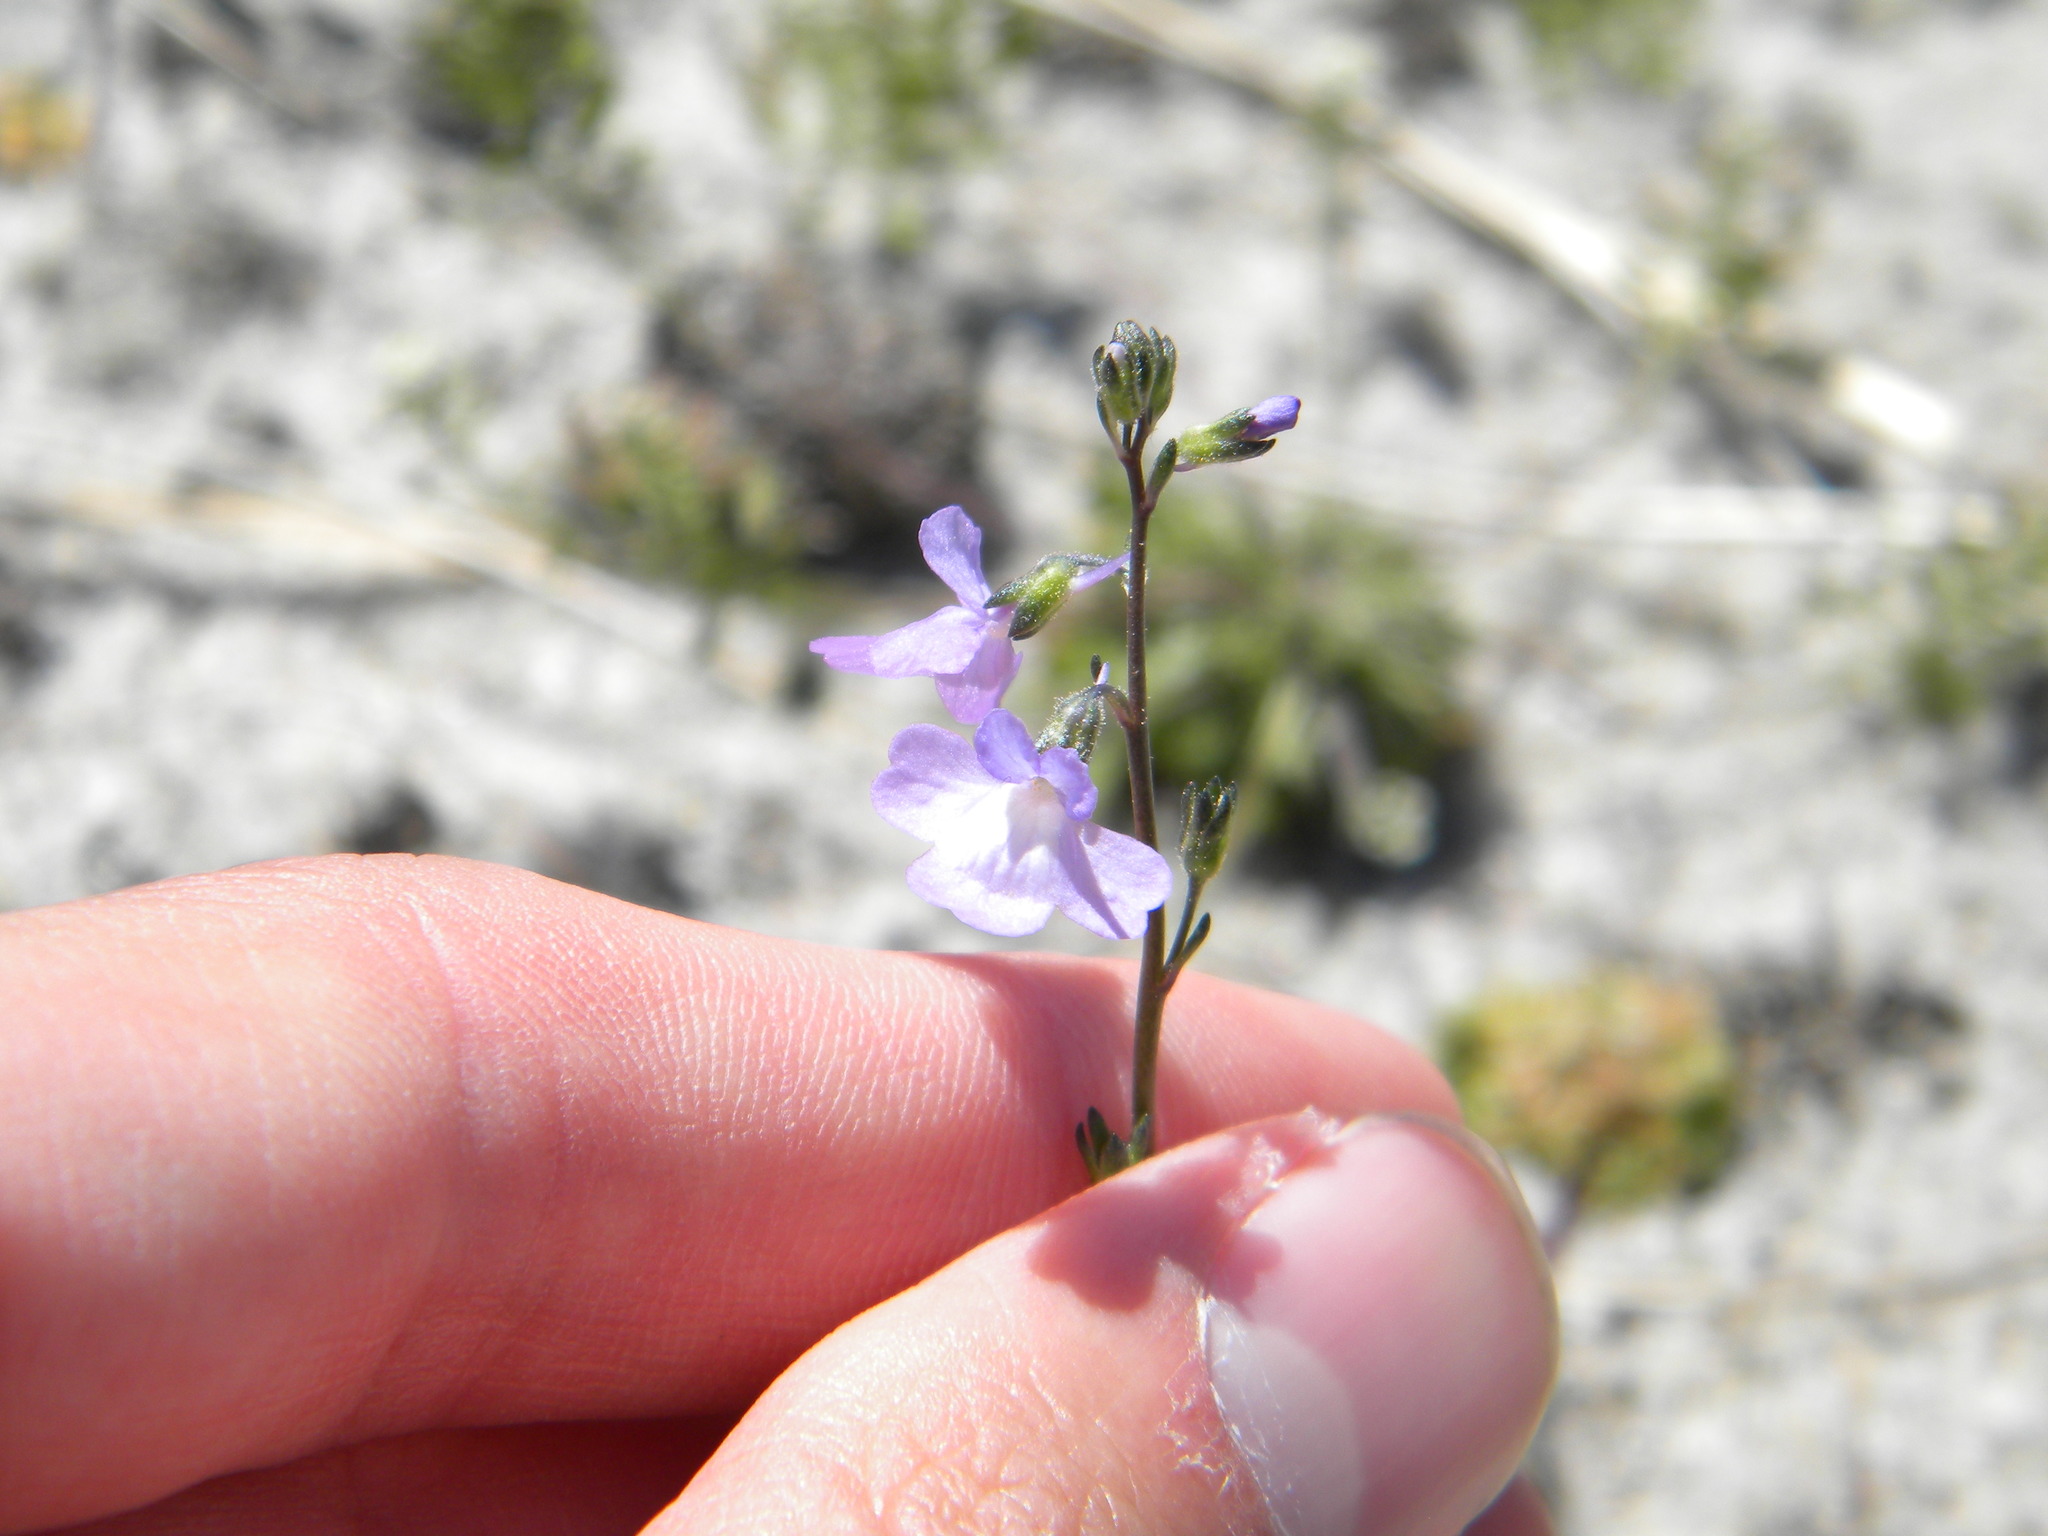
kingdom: Plantae
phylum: Tracheophyta
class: Magnoliopsida
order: Lamiales
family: Plantaginaceae
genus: Nuttallanthus
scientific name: Nuttallanthus canadensis
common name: Blue toadflax
